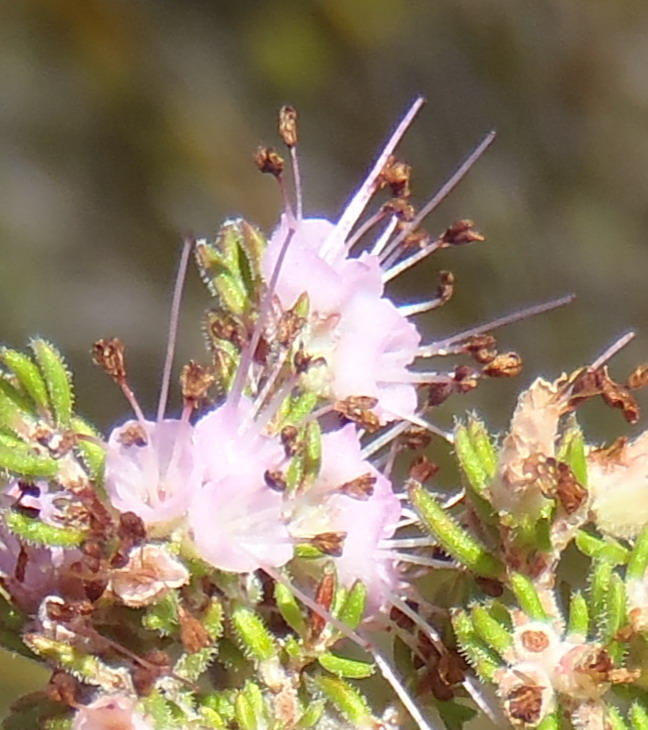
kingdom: Plantae
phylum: Tracheophyta
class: Magnoliopsida
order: Ericales
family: Ericaceae
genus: Erica
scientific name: Erica anguliger
